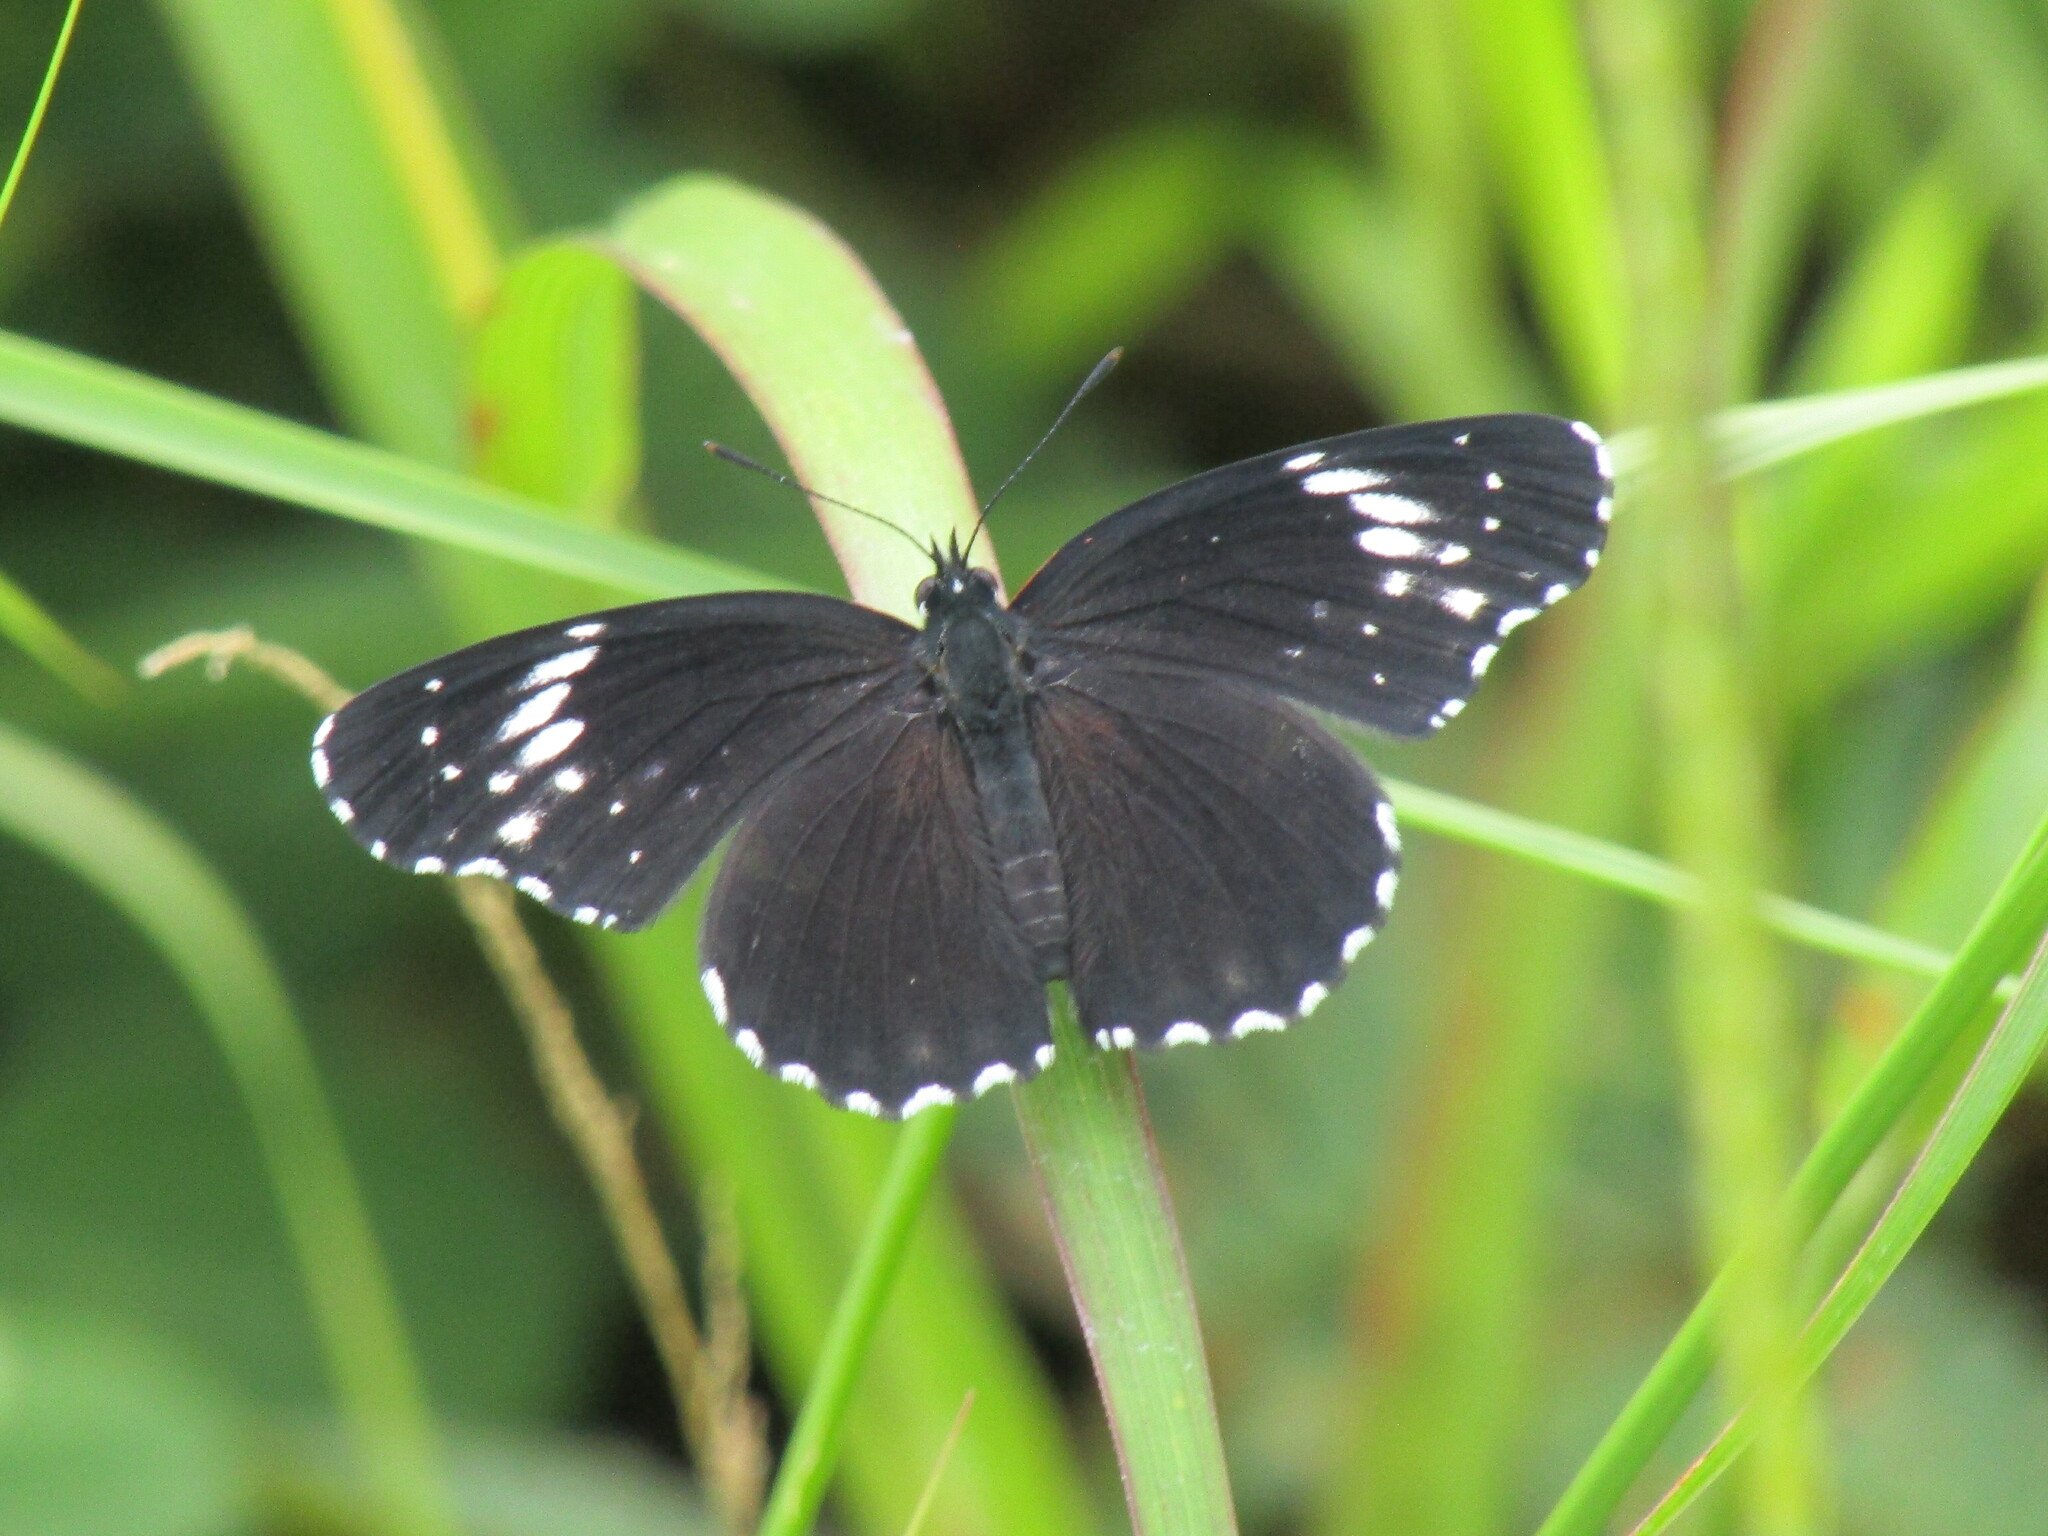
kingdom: Animalia
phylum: Arthropoda
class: Insecta
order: Lepidoptera
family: Nymphalidae
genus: Chlosyne
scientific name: Chlosyne hippodrome
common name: Simple patch
